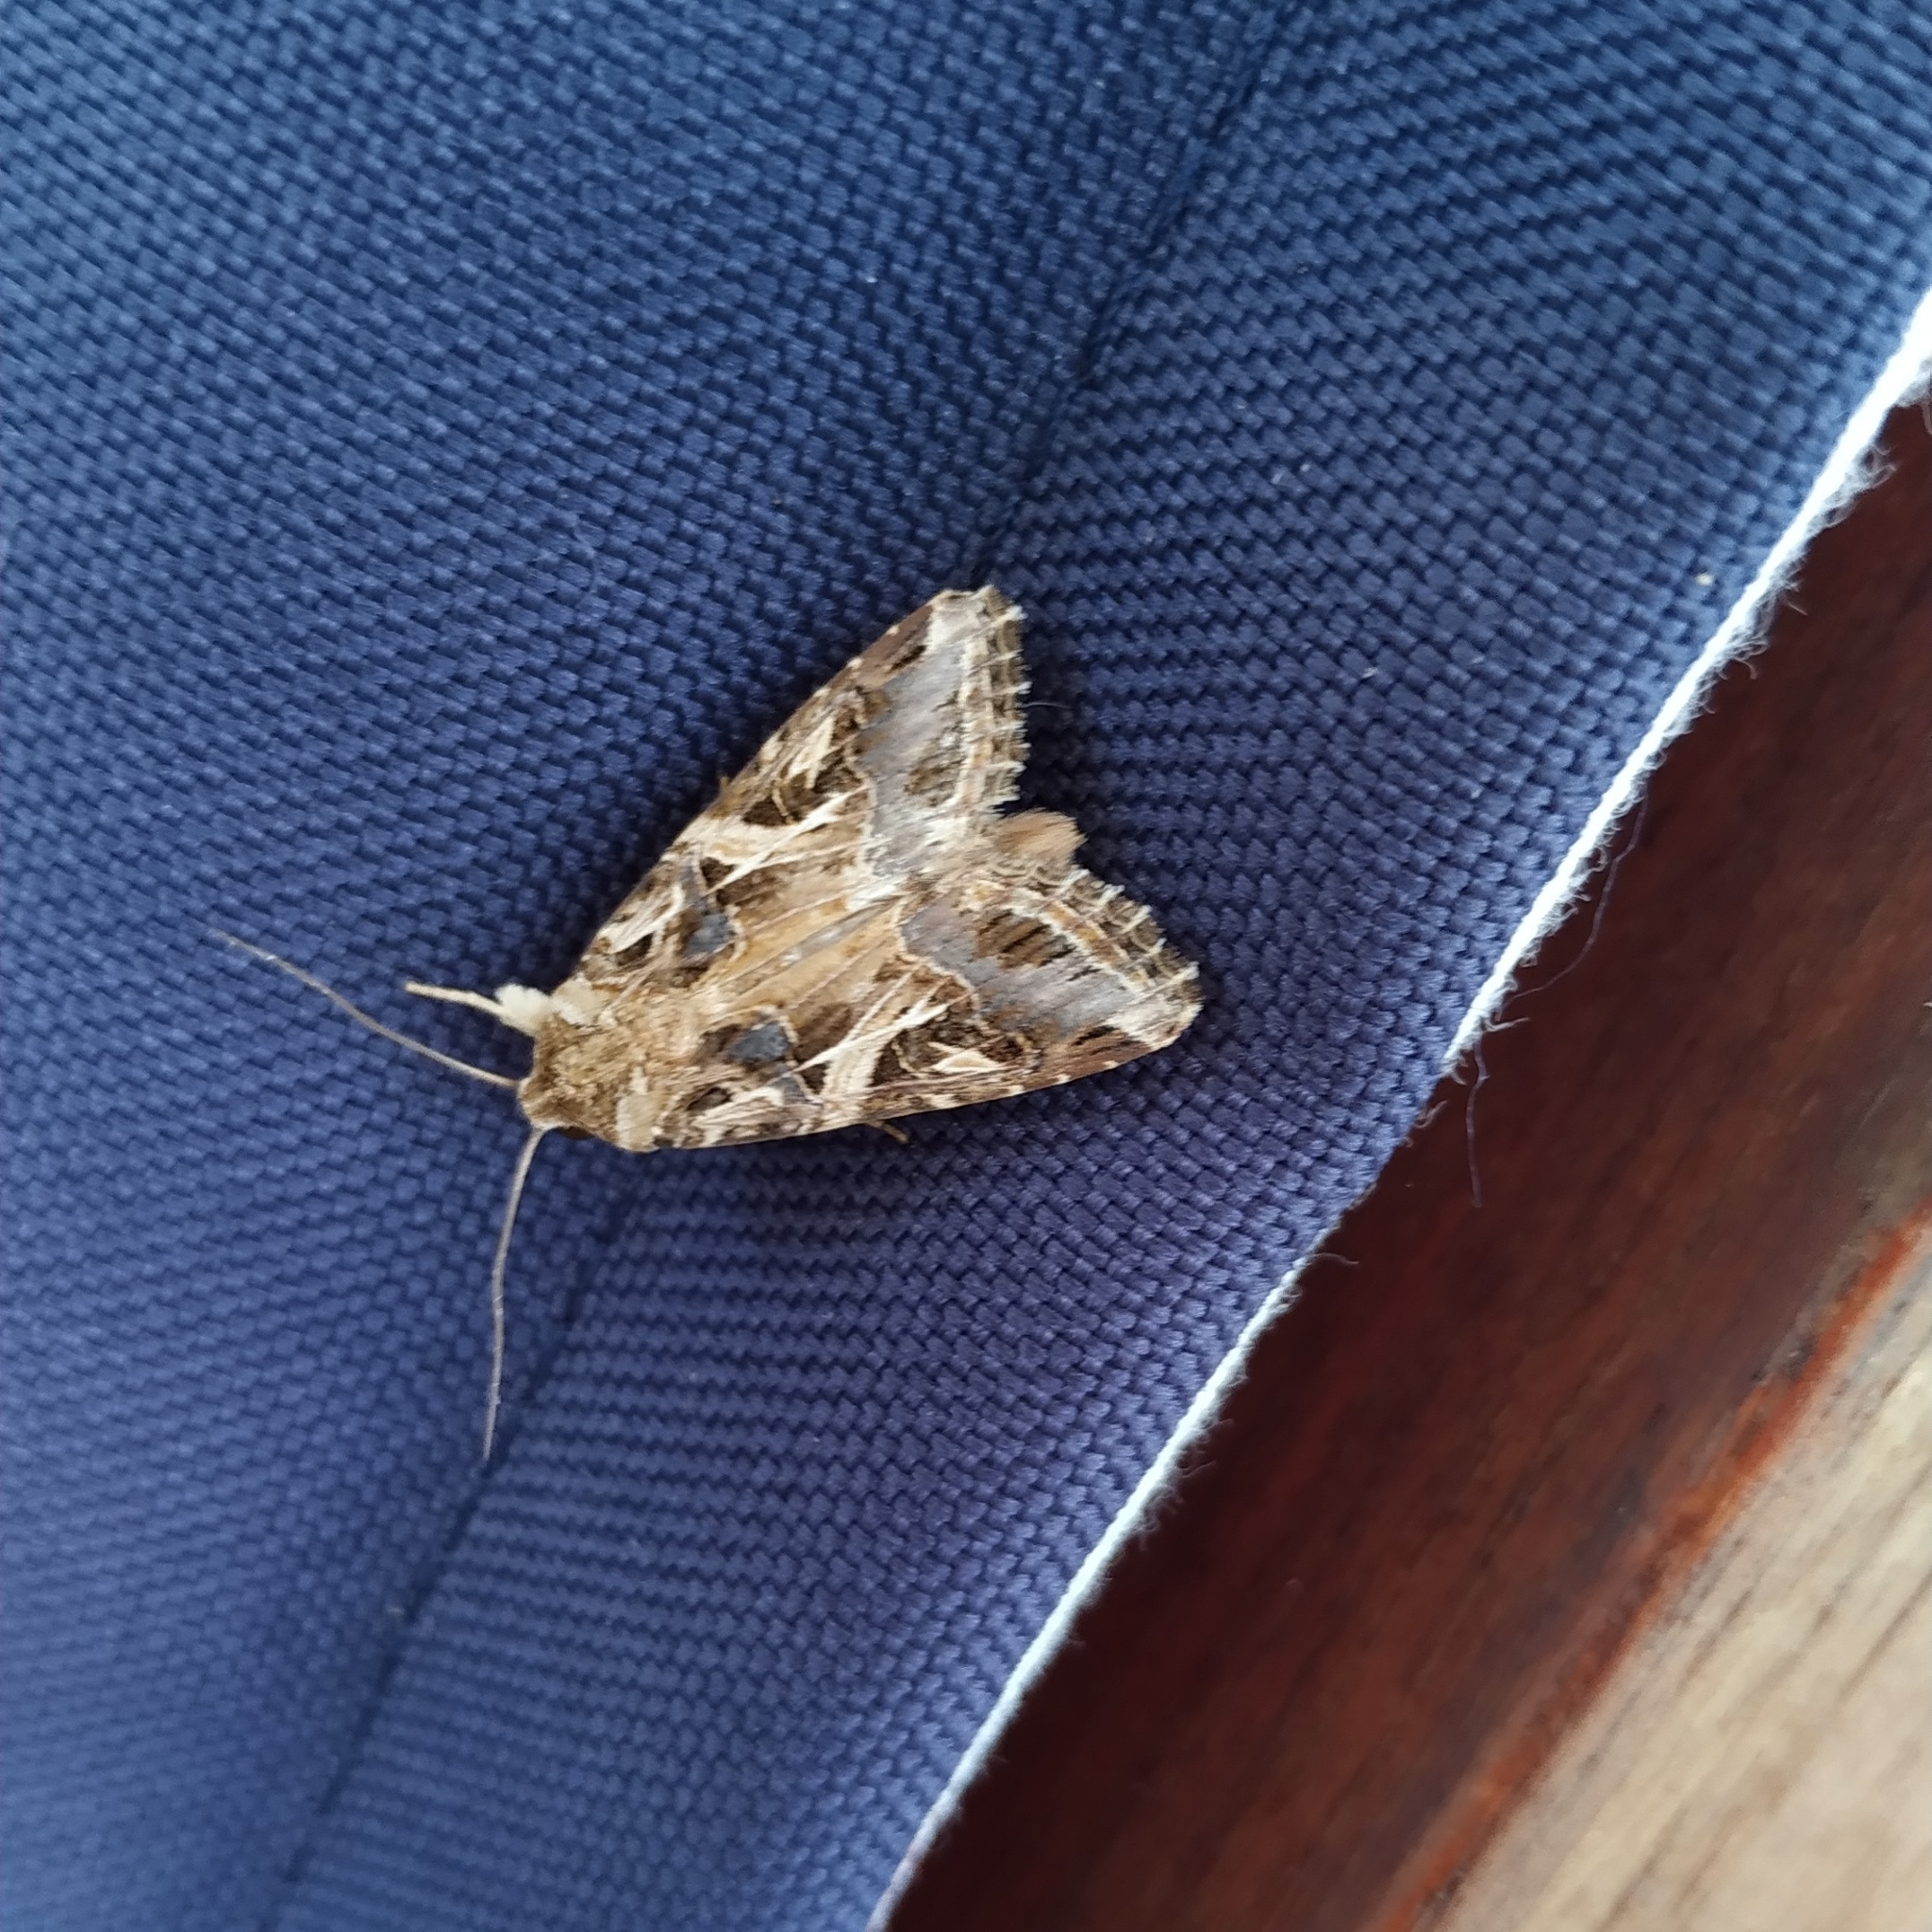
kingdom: Animalia
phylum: Arthropoda
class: Insecta
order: Lepidoptera
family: Noctuidae
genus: Spodoptera
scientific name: Spodoptera littoralis
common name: Egyptian cotton leafworm
